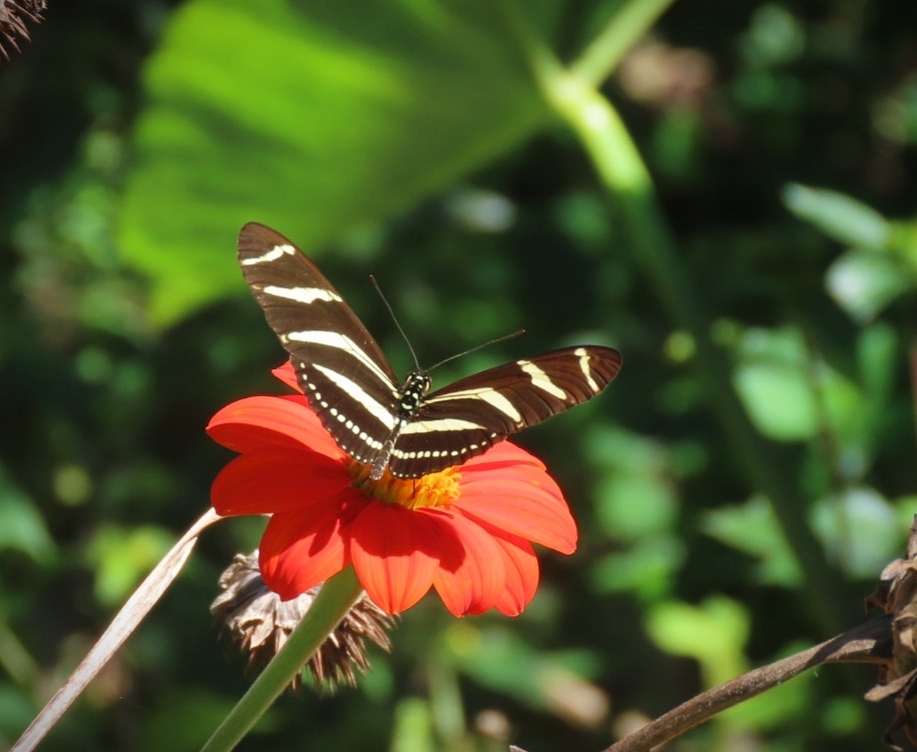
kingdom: Animalia
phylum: Arthropoda
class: Insecta
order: Lepidoptera
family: Nymphalidae
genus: Heliconius
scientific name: Heliconius charithonia
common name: Zebra long wing
